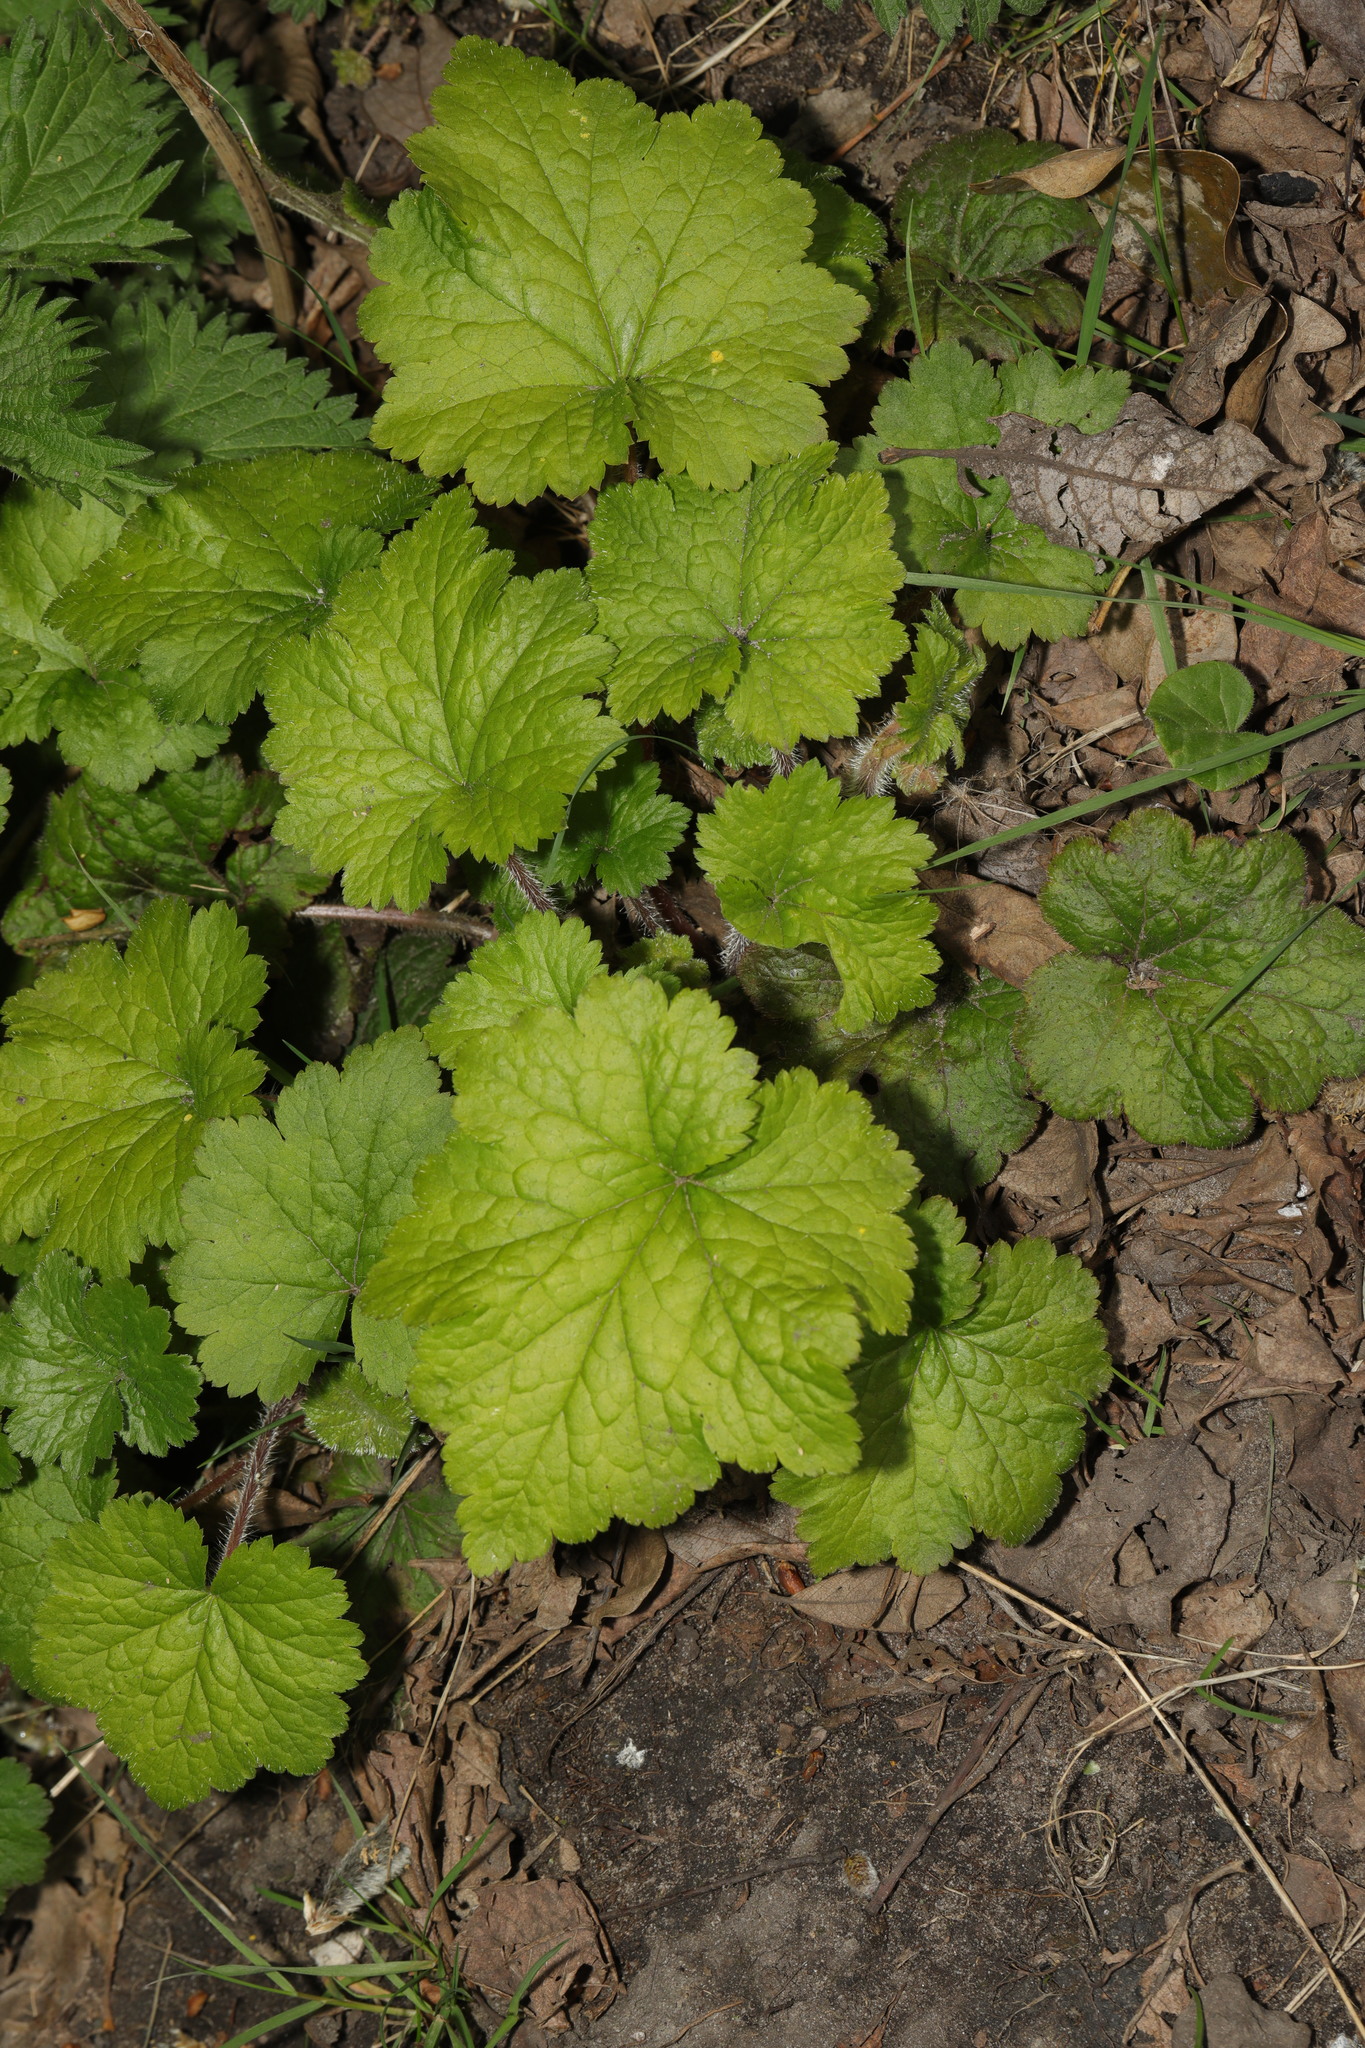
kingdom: Plantae
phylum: Tracheophyta
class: Magnoliopsida
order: Saxifragales
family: Saxifragaceae
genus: Tellima
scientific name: Tellima grandiflora
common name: Fringecups
